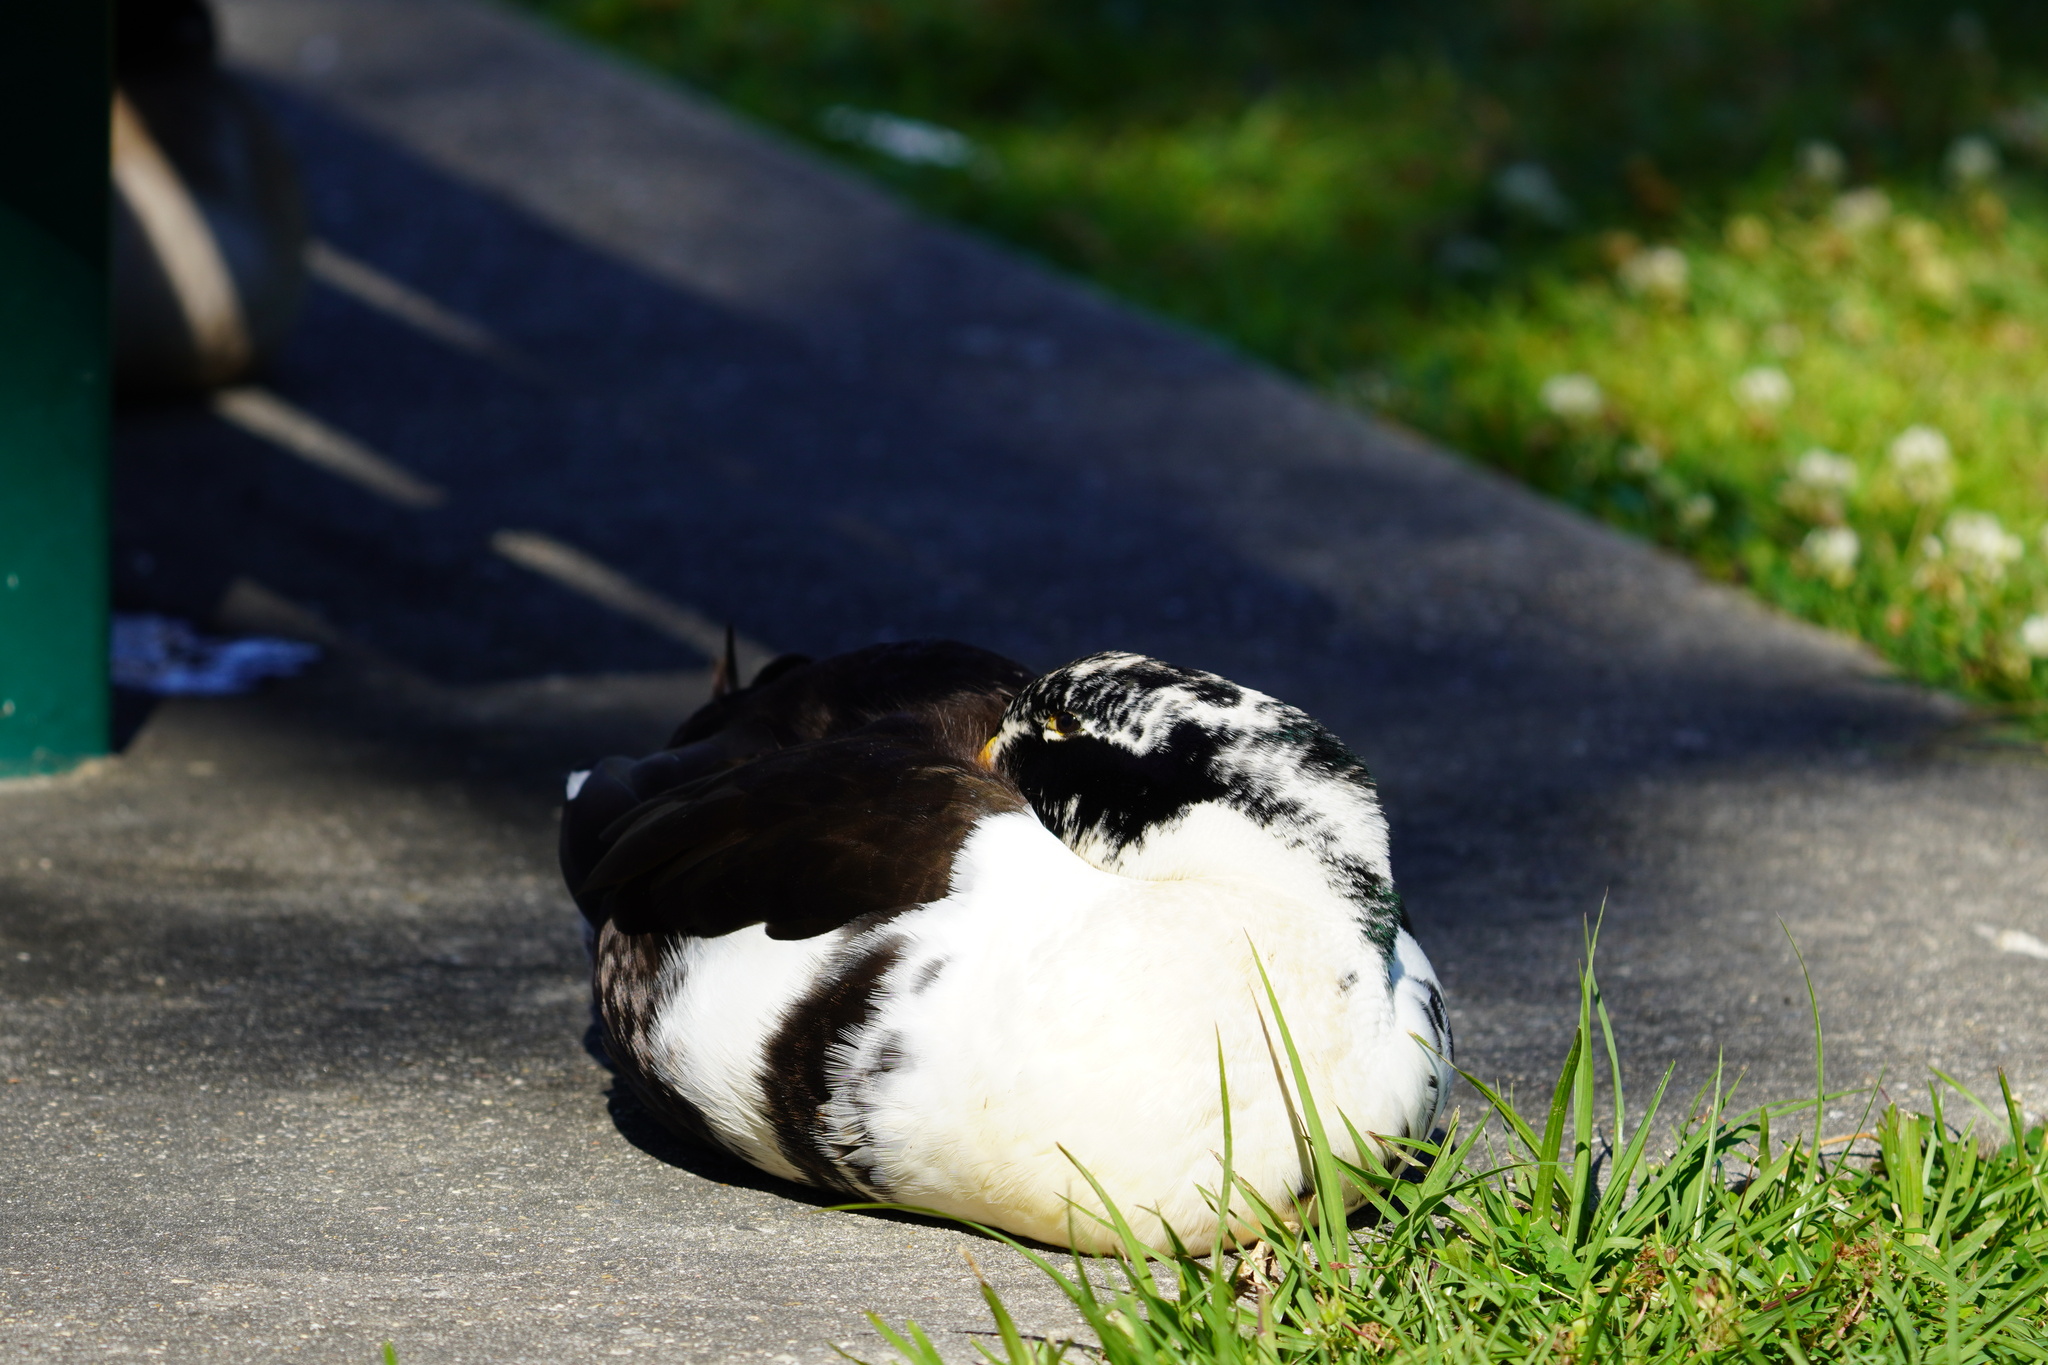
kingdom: Animalia
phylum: Chordata
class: Aves
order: Anseriformes
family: Anatidae
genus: Anas
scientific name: Anas platyrhynchos
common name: Mallard
